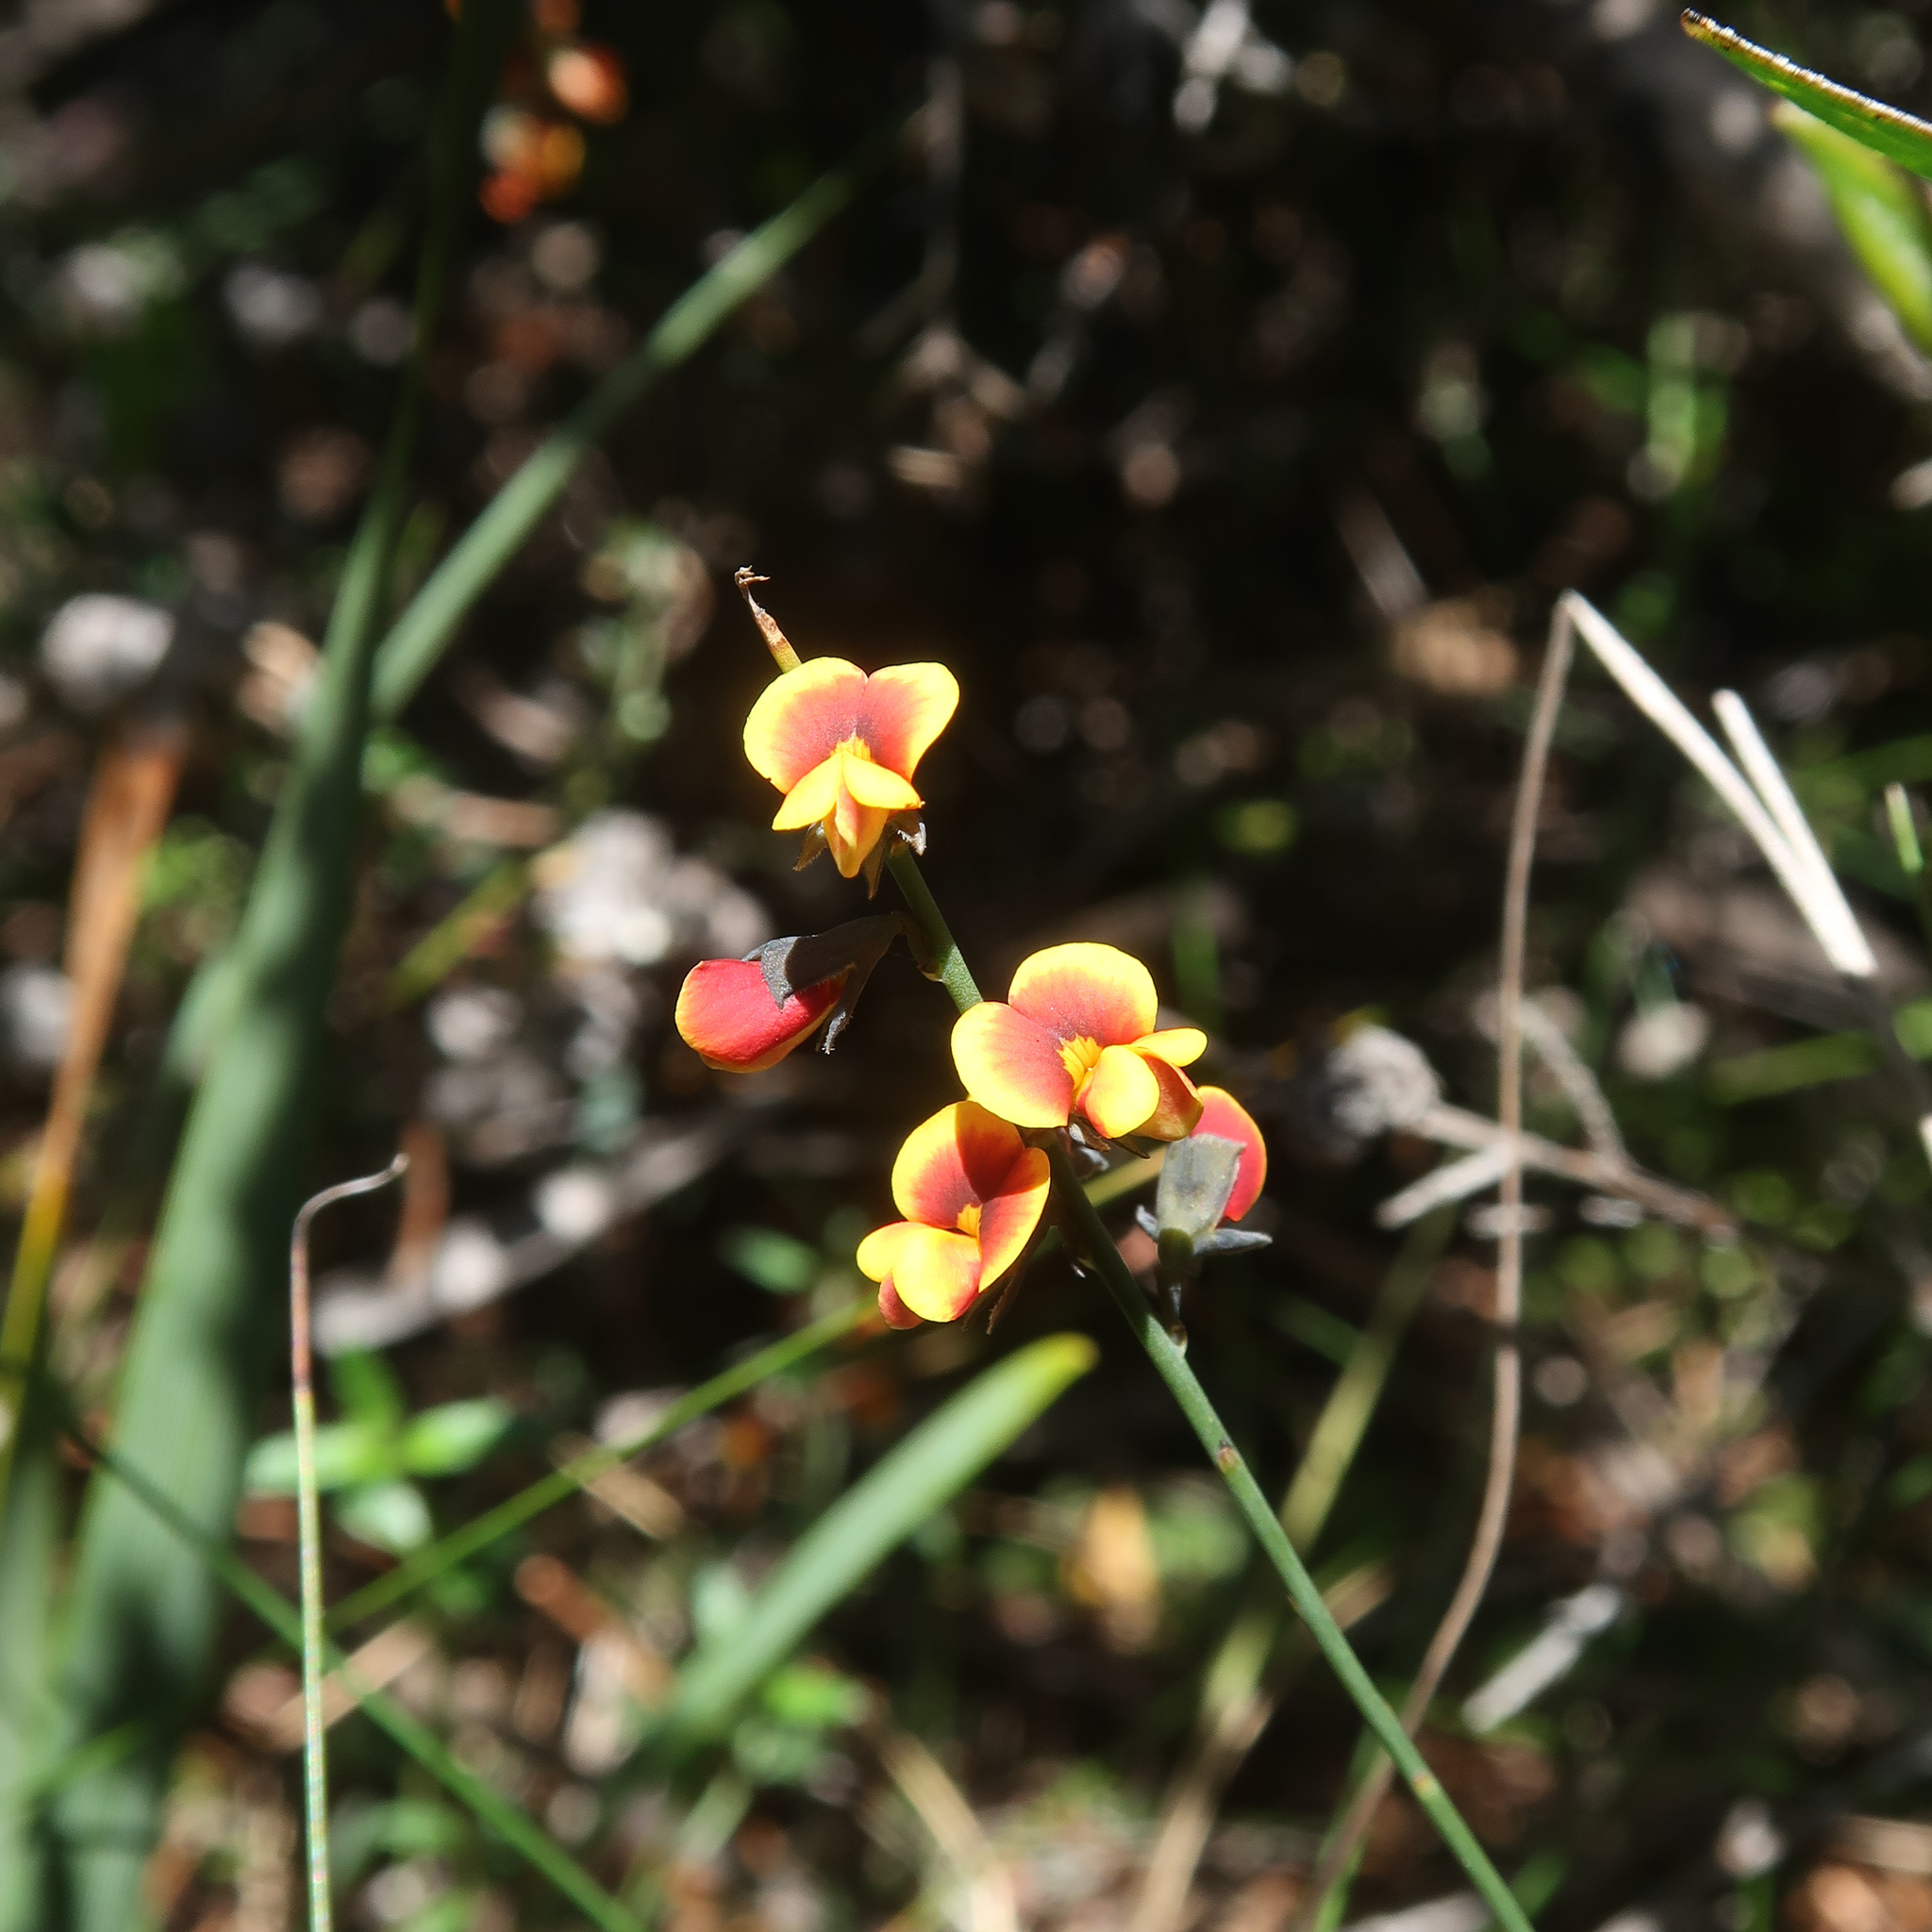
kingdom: Plantae
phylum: Tracheophyta
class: Magnoliopsida
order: Fabales
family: Fabaceae
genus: Sphaerolobium
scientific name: Sphaerolobium minus
